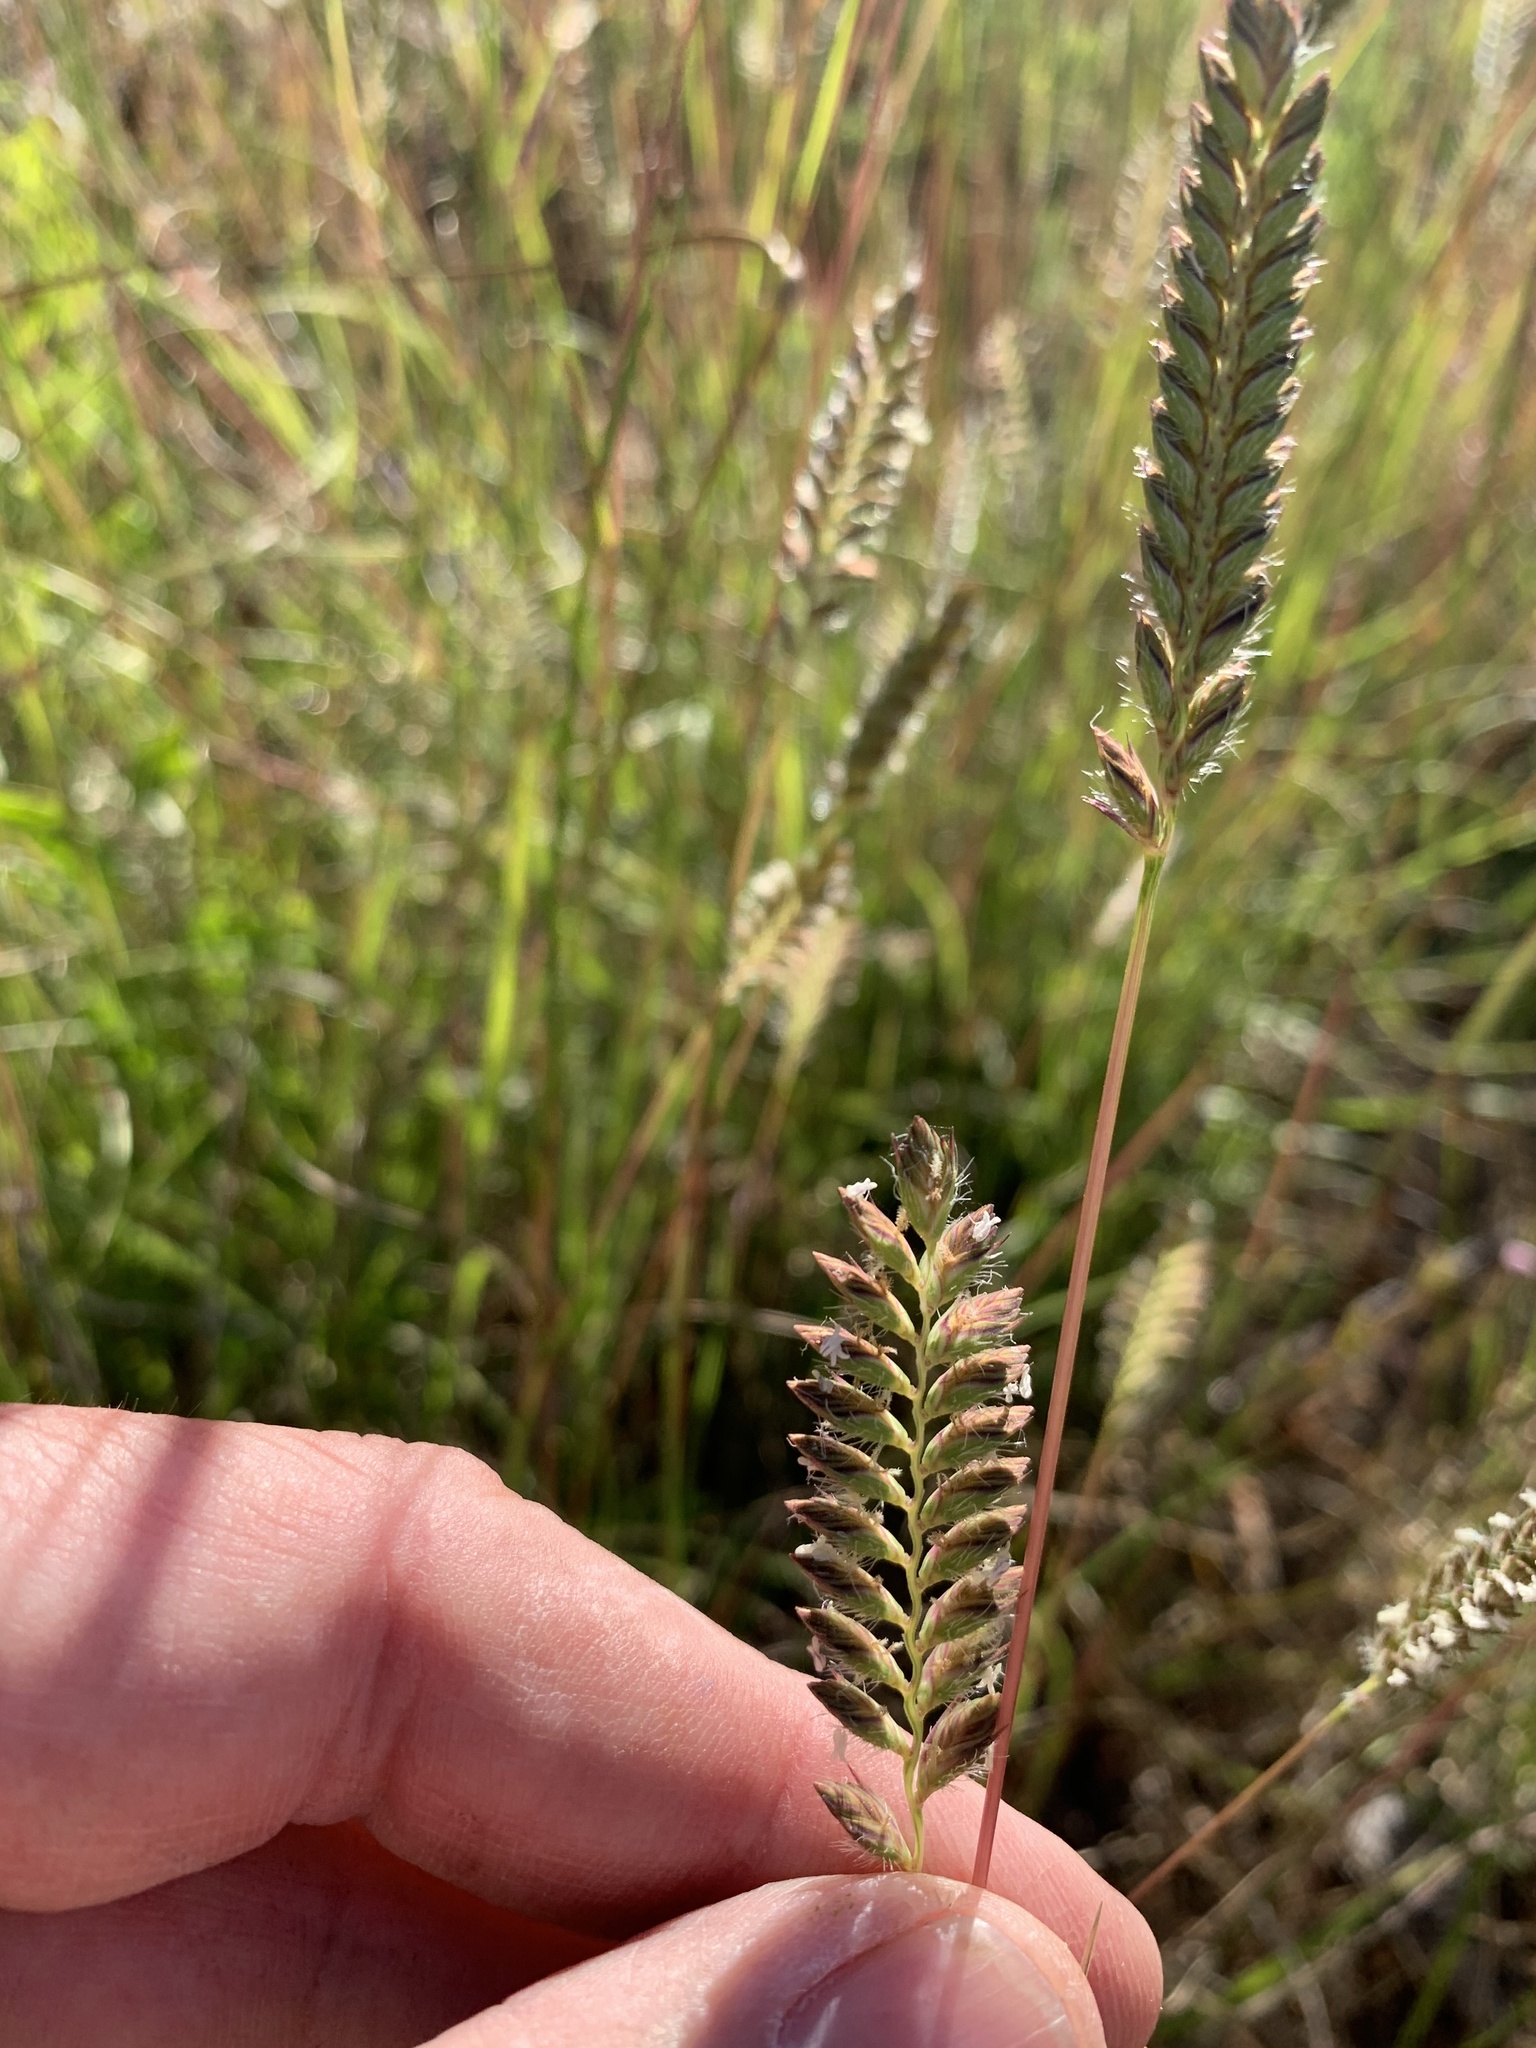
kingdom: Plantae
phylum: Tracheophyta
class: Liliopsida
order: Poales
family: Poaceae
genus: Tribolium
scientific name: Tribolium uniolae
